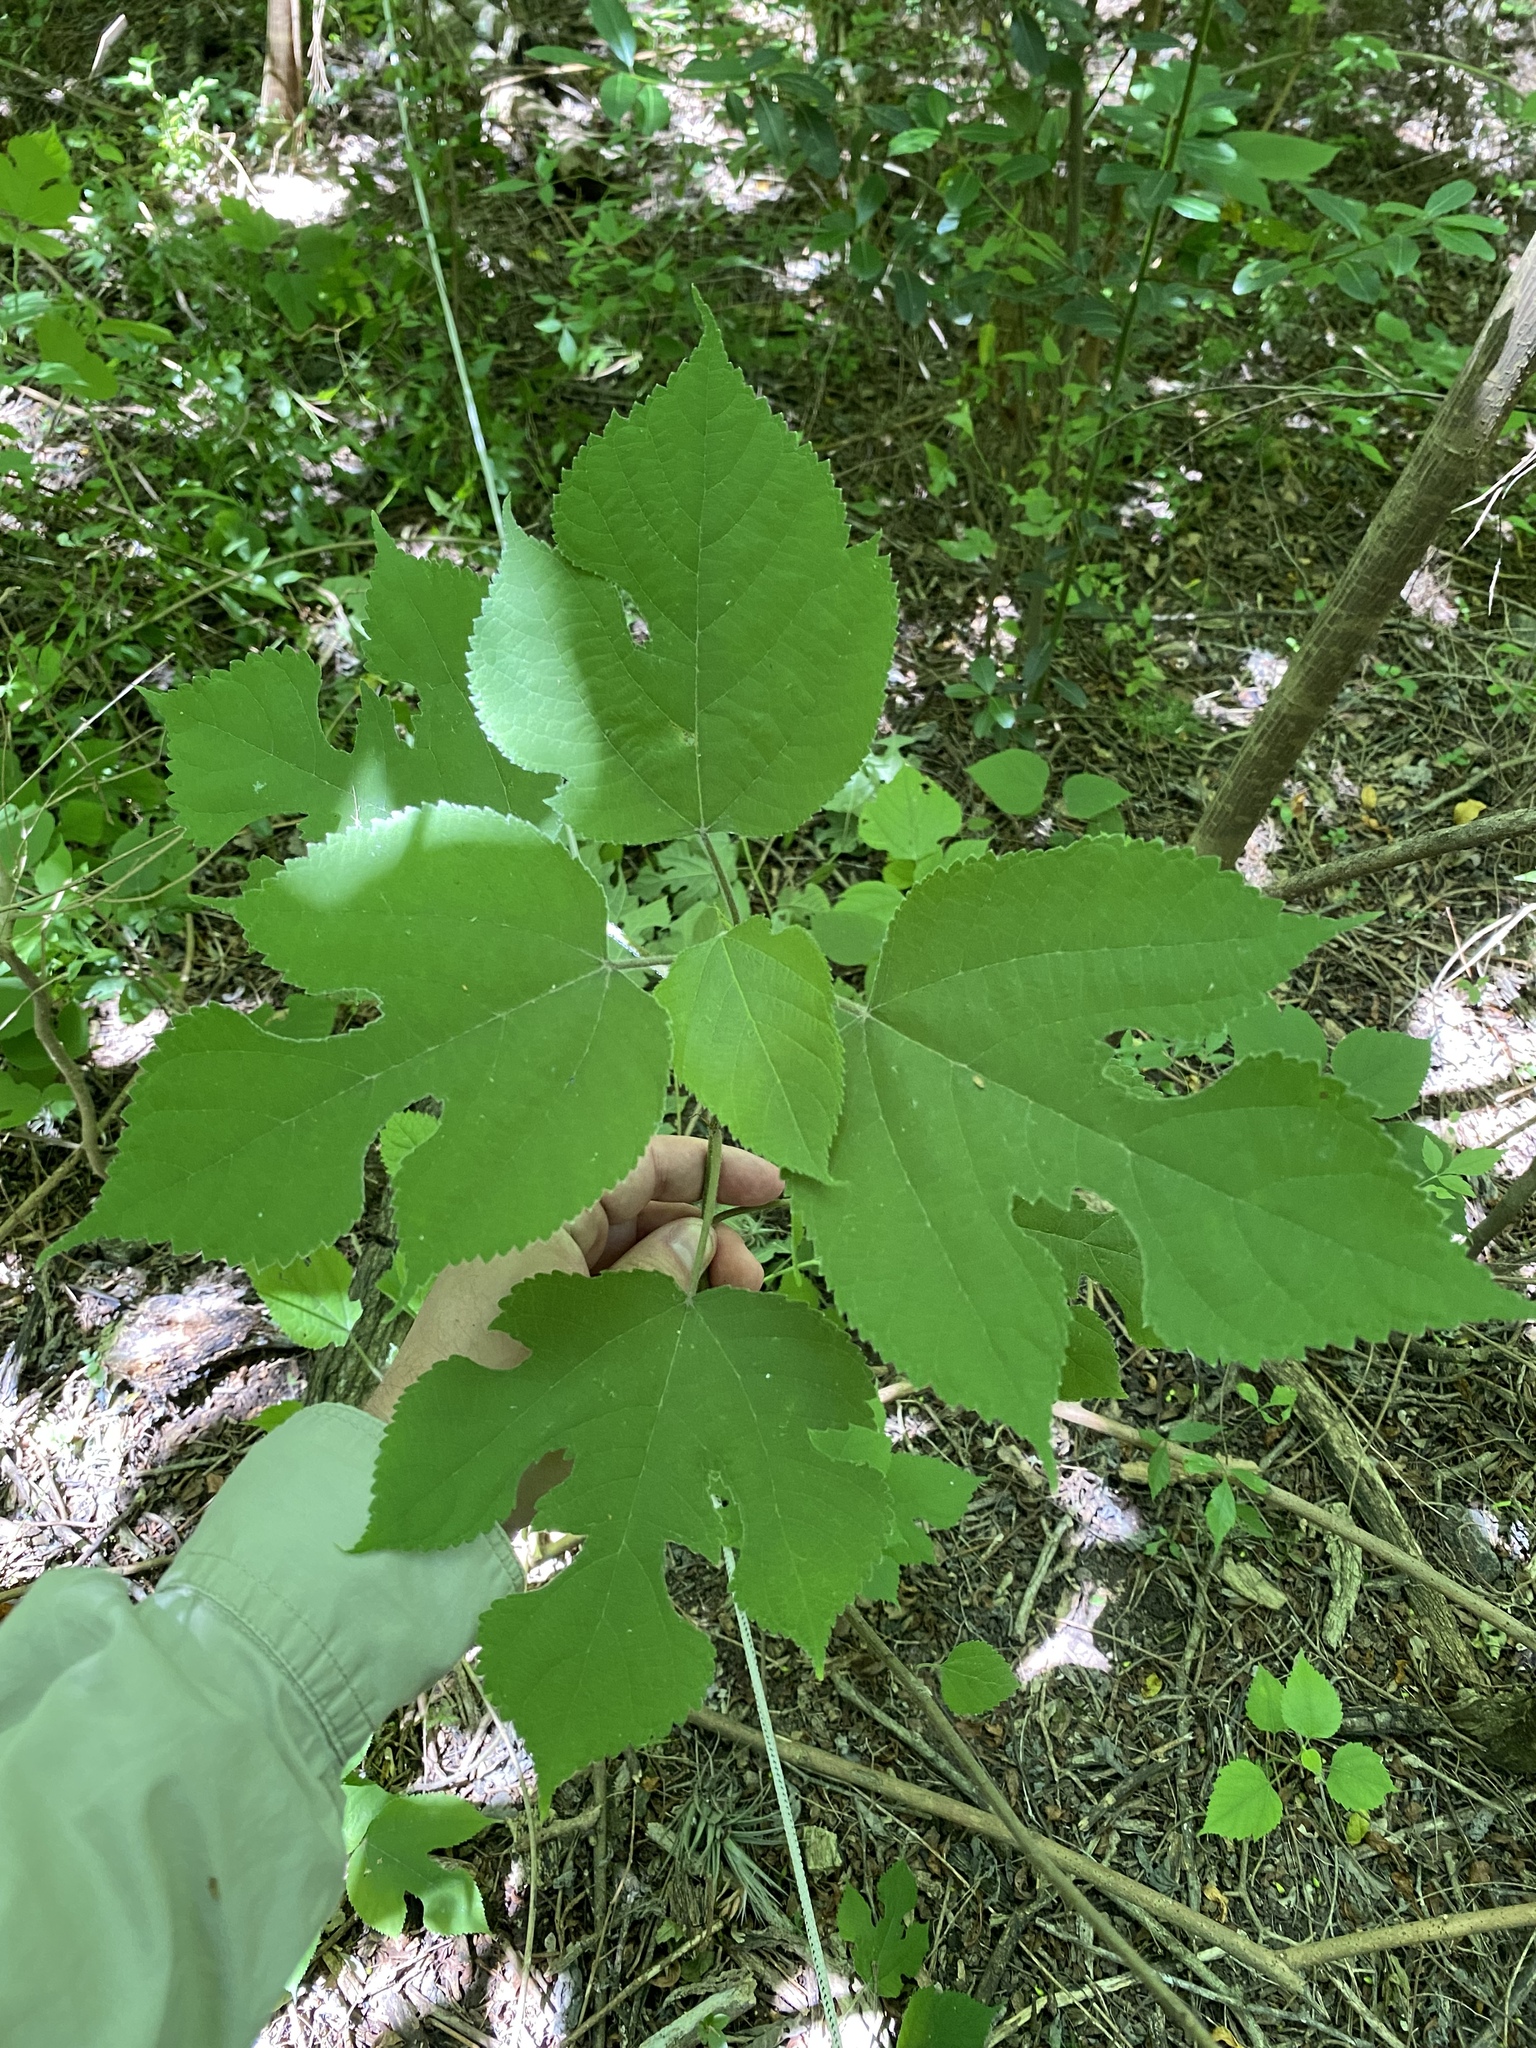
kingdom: Plantae
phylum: Tracheophyta
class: Magnoliopsida
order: Rosales
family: Moraceae
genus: Broussonetia
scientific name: Broussonetia papyrifera
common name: Paper mulberry
